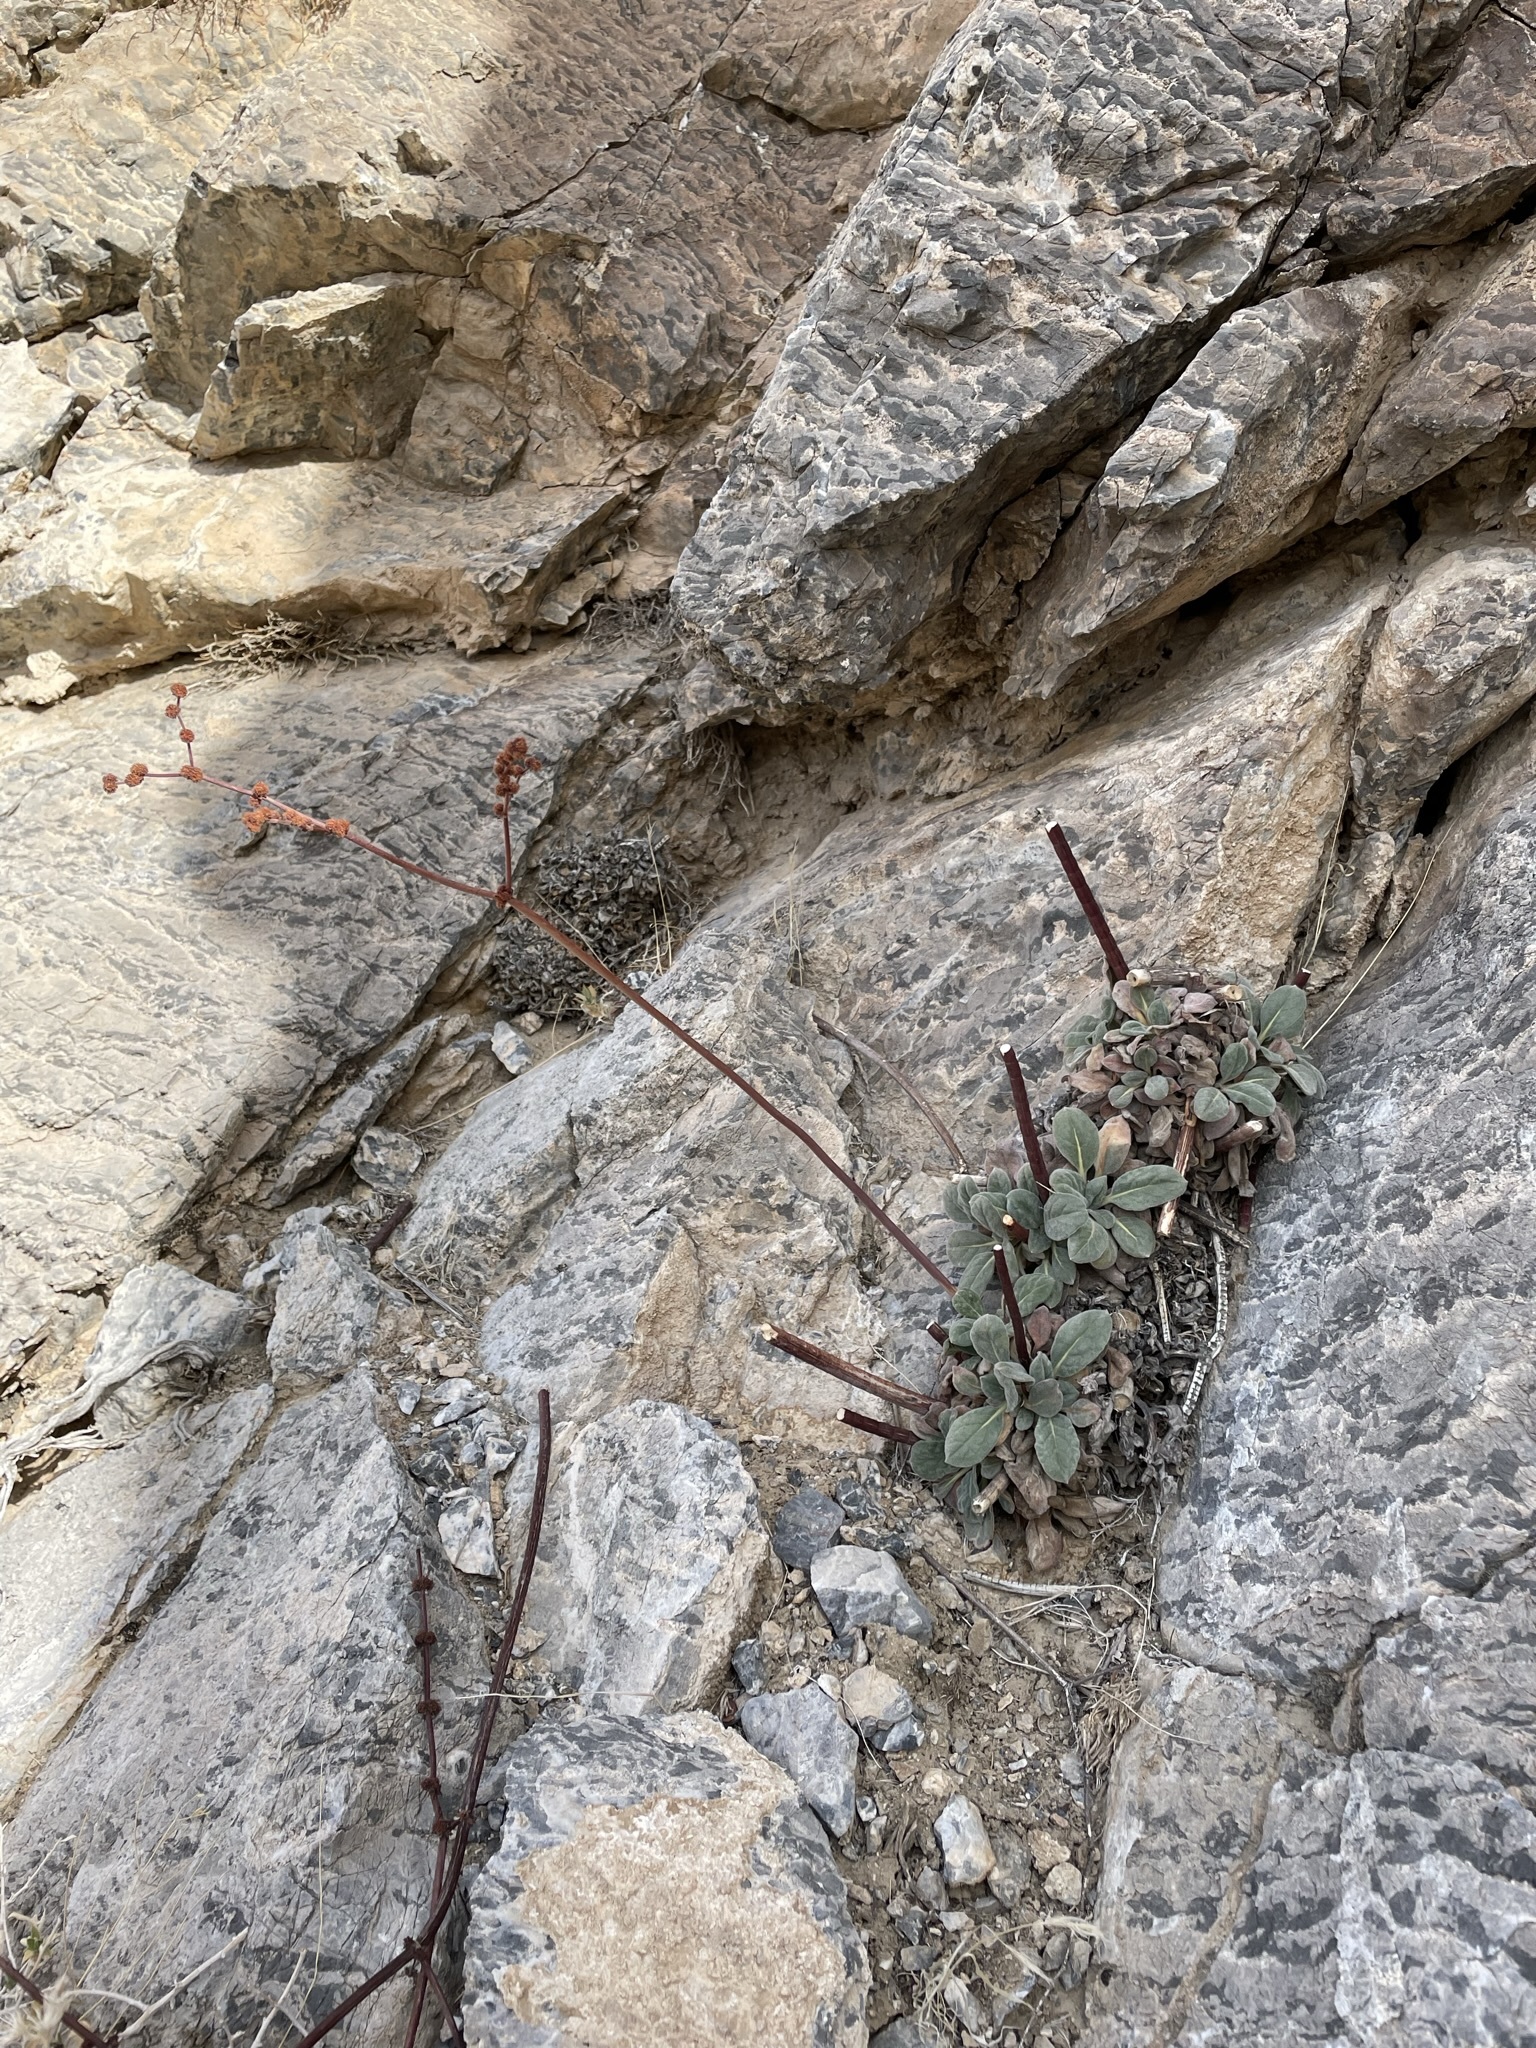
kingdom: Plantae
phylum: Tracheophyta
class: Magnoliopsida
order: Caryophyllales
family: Polygonaceae
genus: Eriogonum
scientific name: Eriogonum intrafractum
